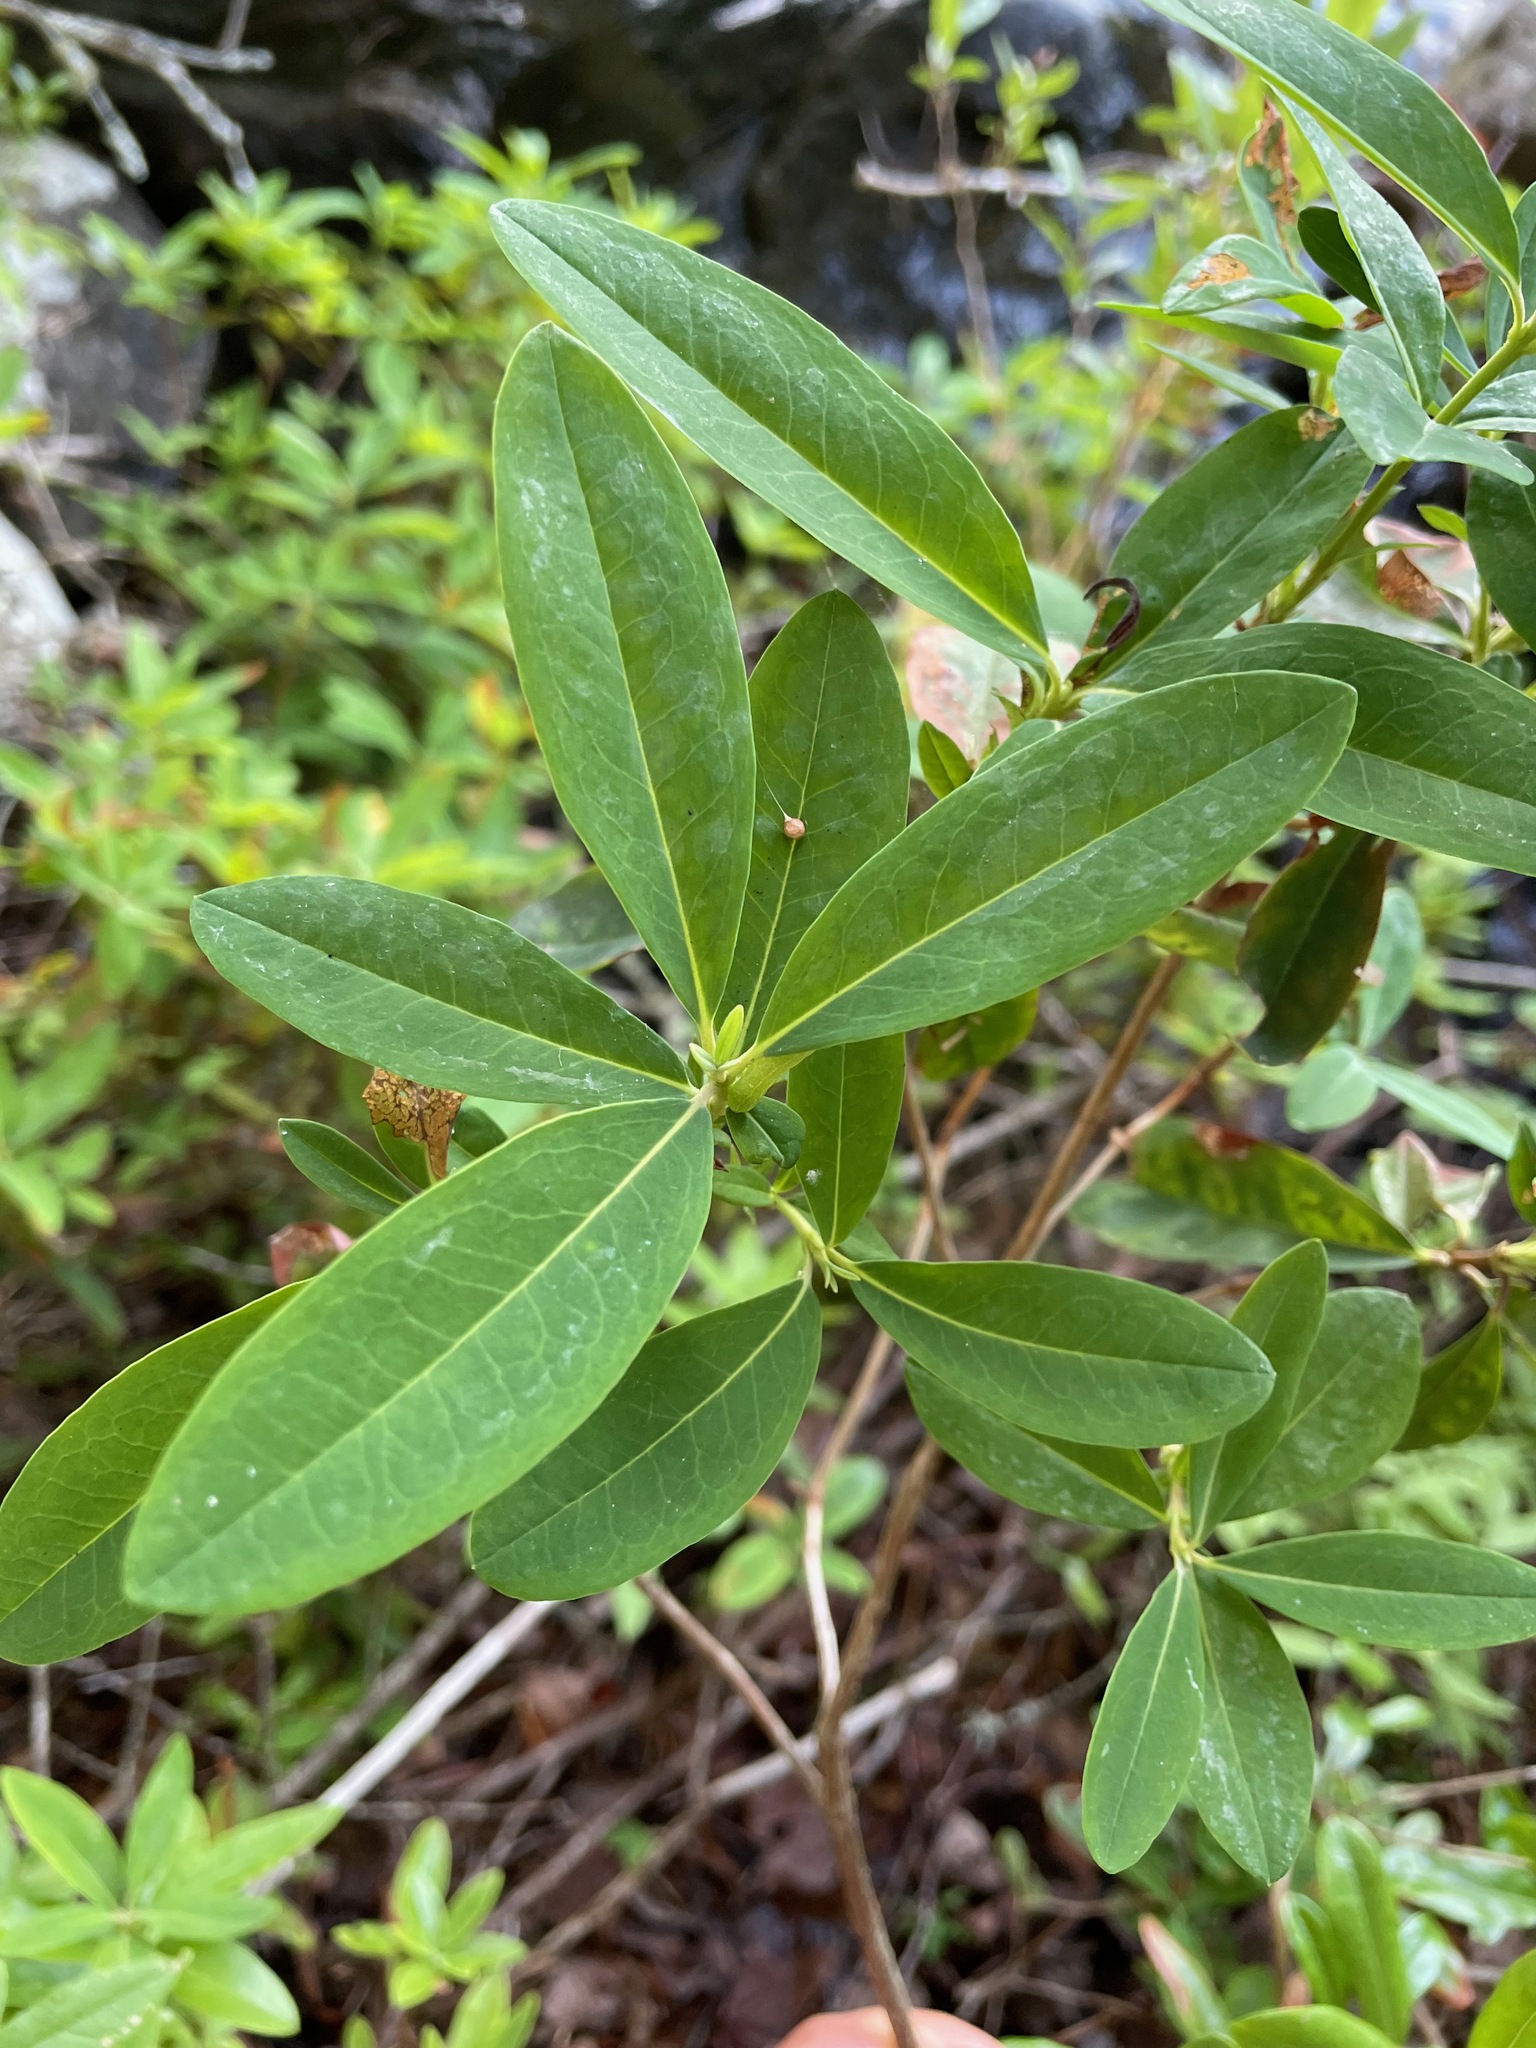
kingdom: Plantae
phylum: Tracheophyta
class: Magnoliopsida
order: Ericales
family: Ericaceae
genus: Kalmia
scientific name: Kalmia angustifolia
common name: Sheep-laurel
